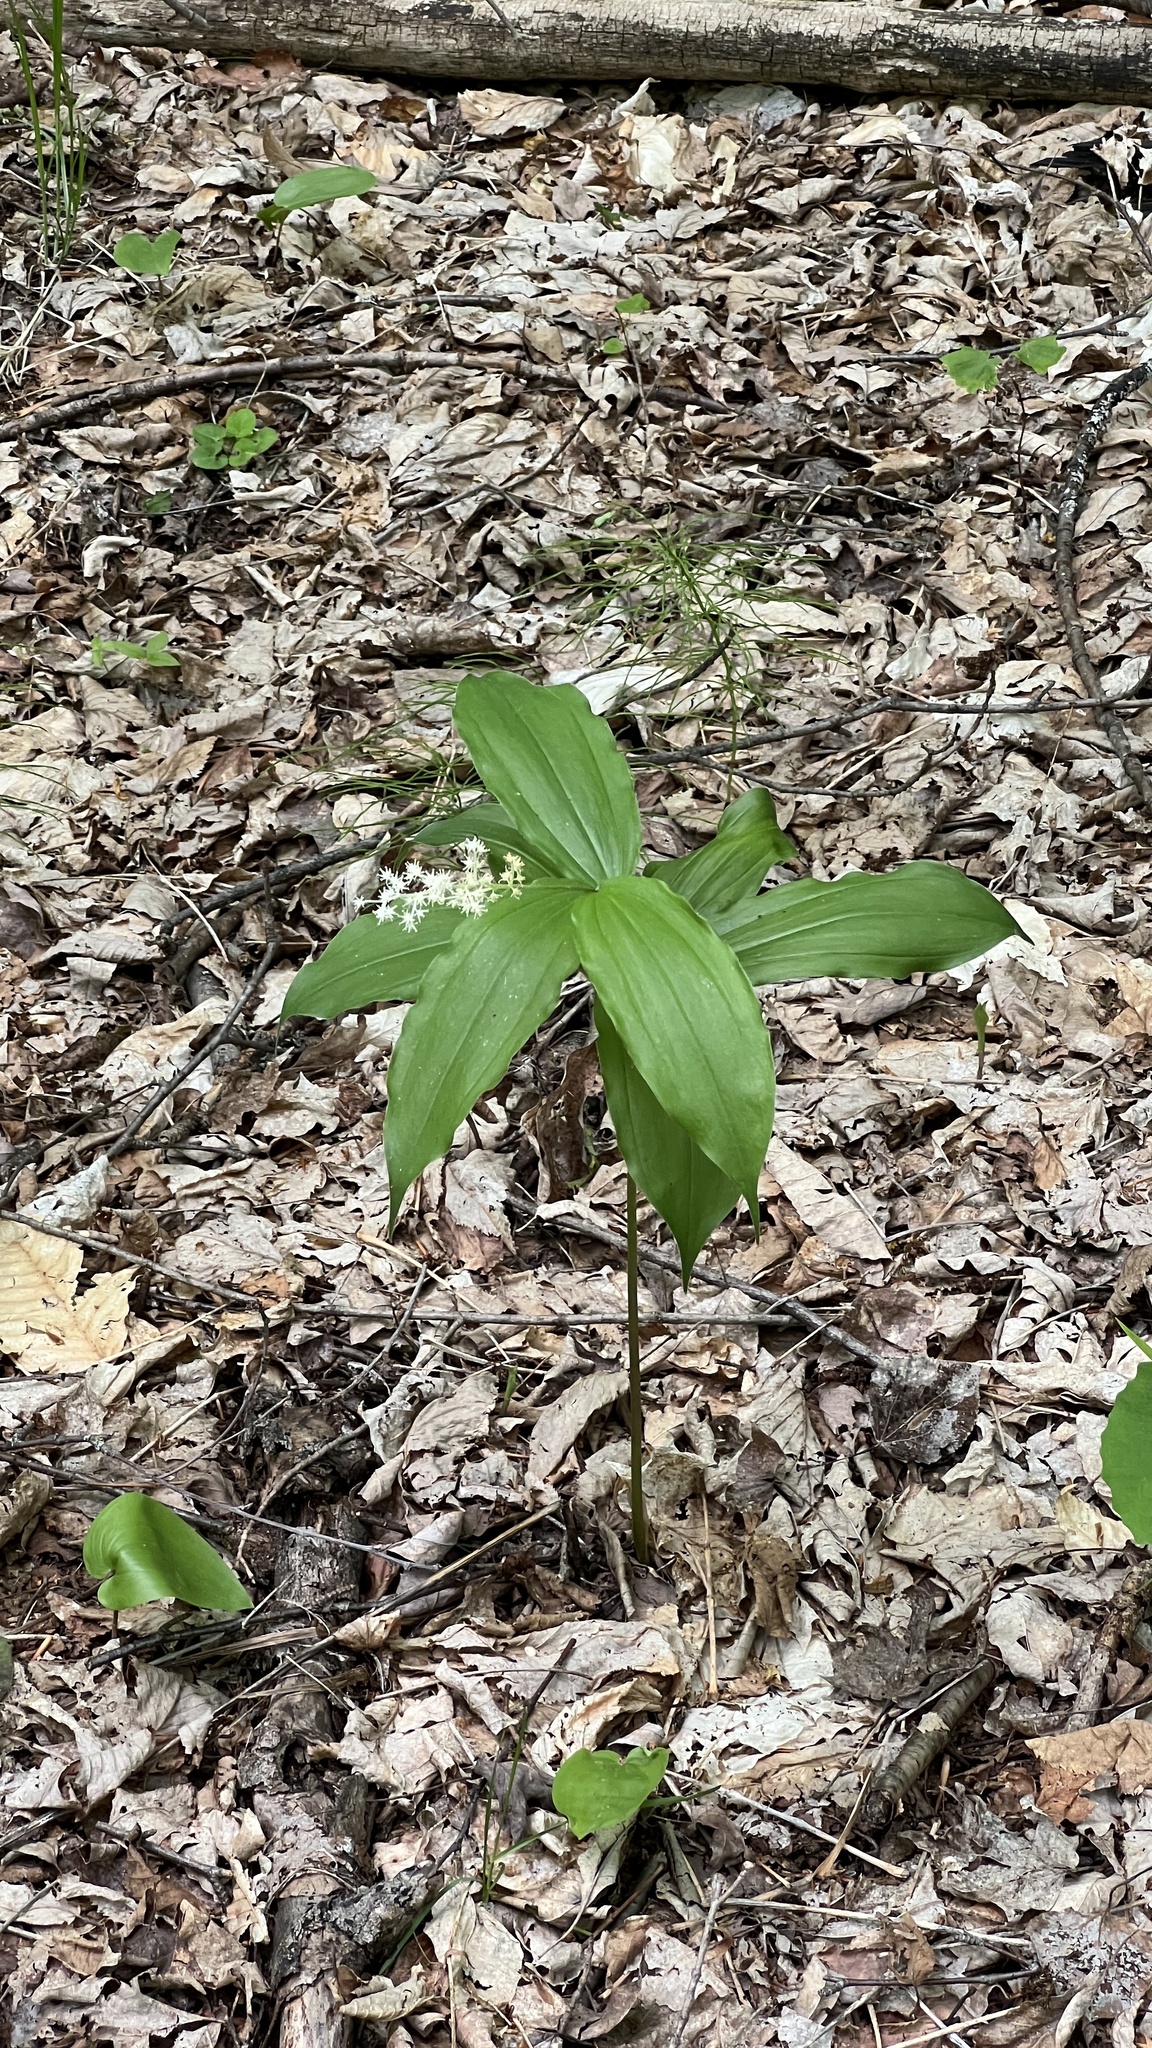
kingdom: Plantae
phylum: Tracheophyta
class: Liliopsida
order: Asparagales
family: Asparagaceae
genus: Maianthemum
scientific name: Maianthemum racemosum
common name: False spikenard
